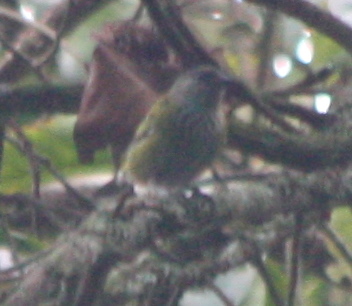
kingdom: Animalia
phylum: Chordata
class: Aves
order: Passeriformes
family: Thraupidae
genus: Stilpnia
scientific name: Stilpnia heinei
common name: Black-capped tanager
